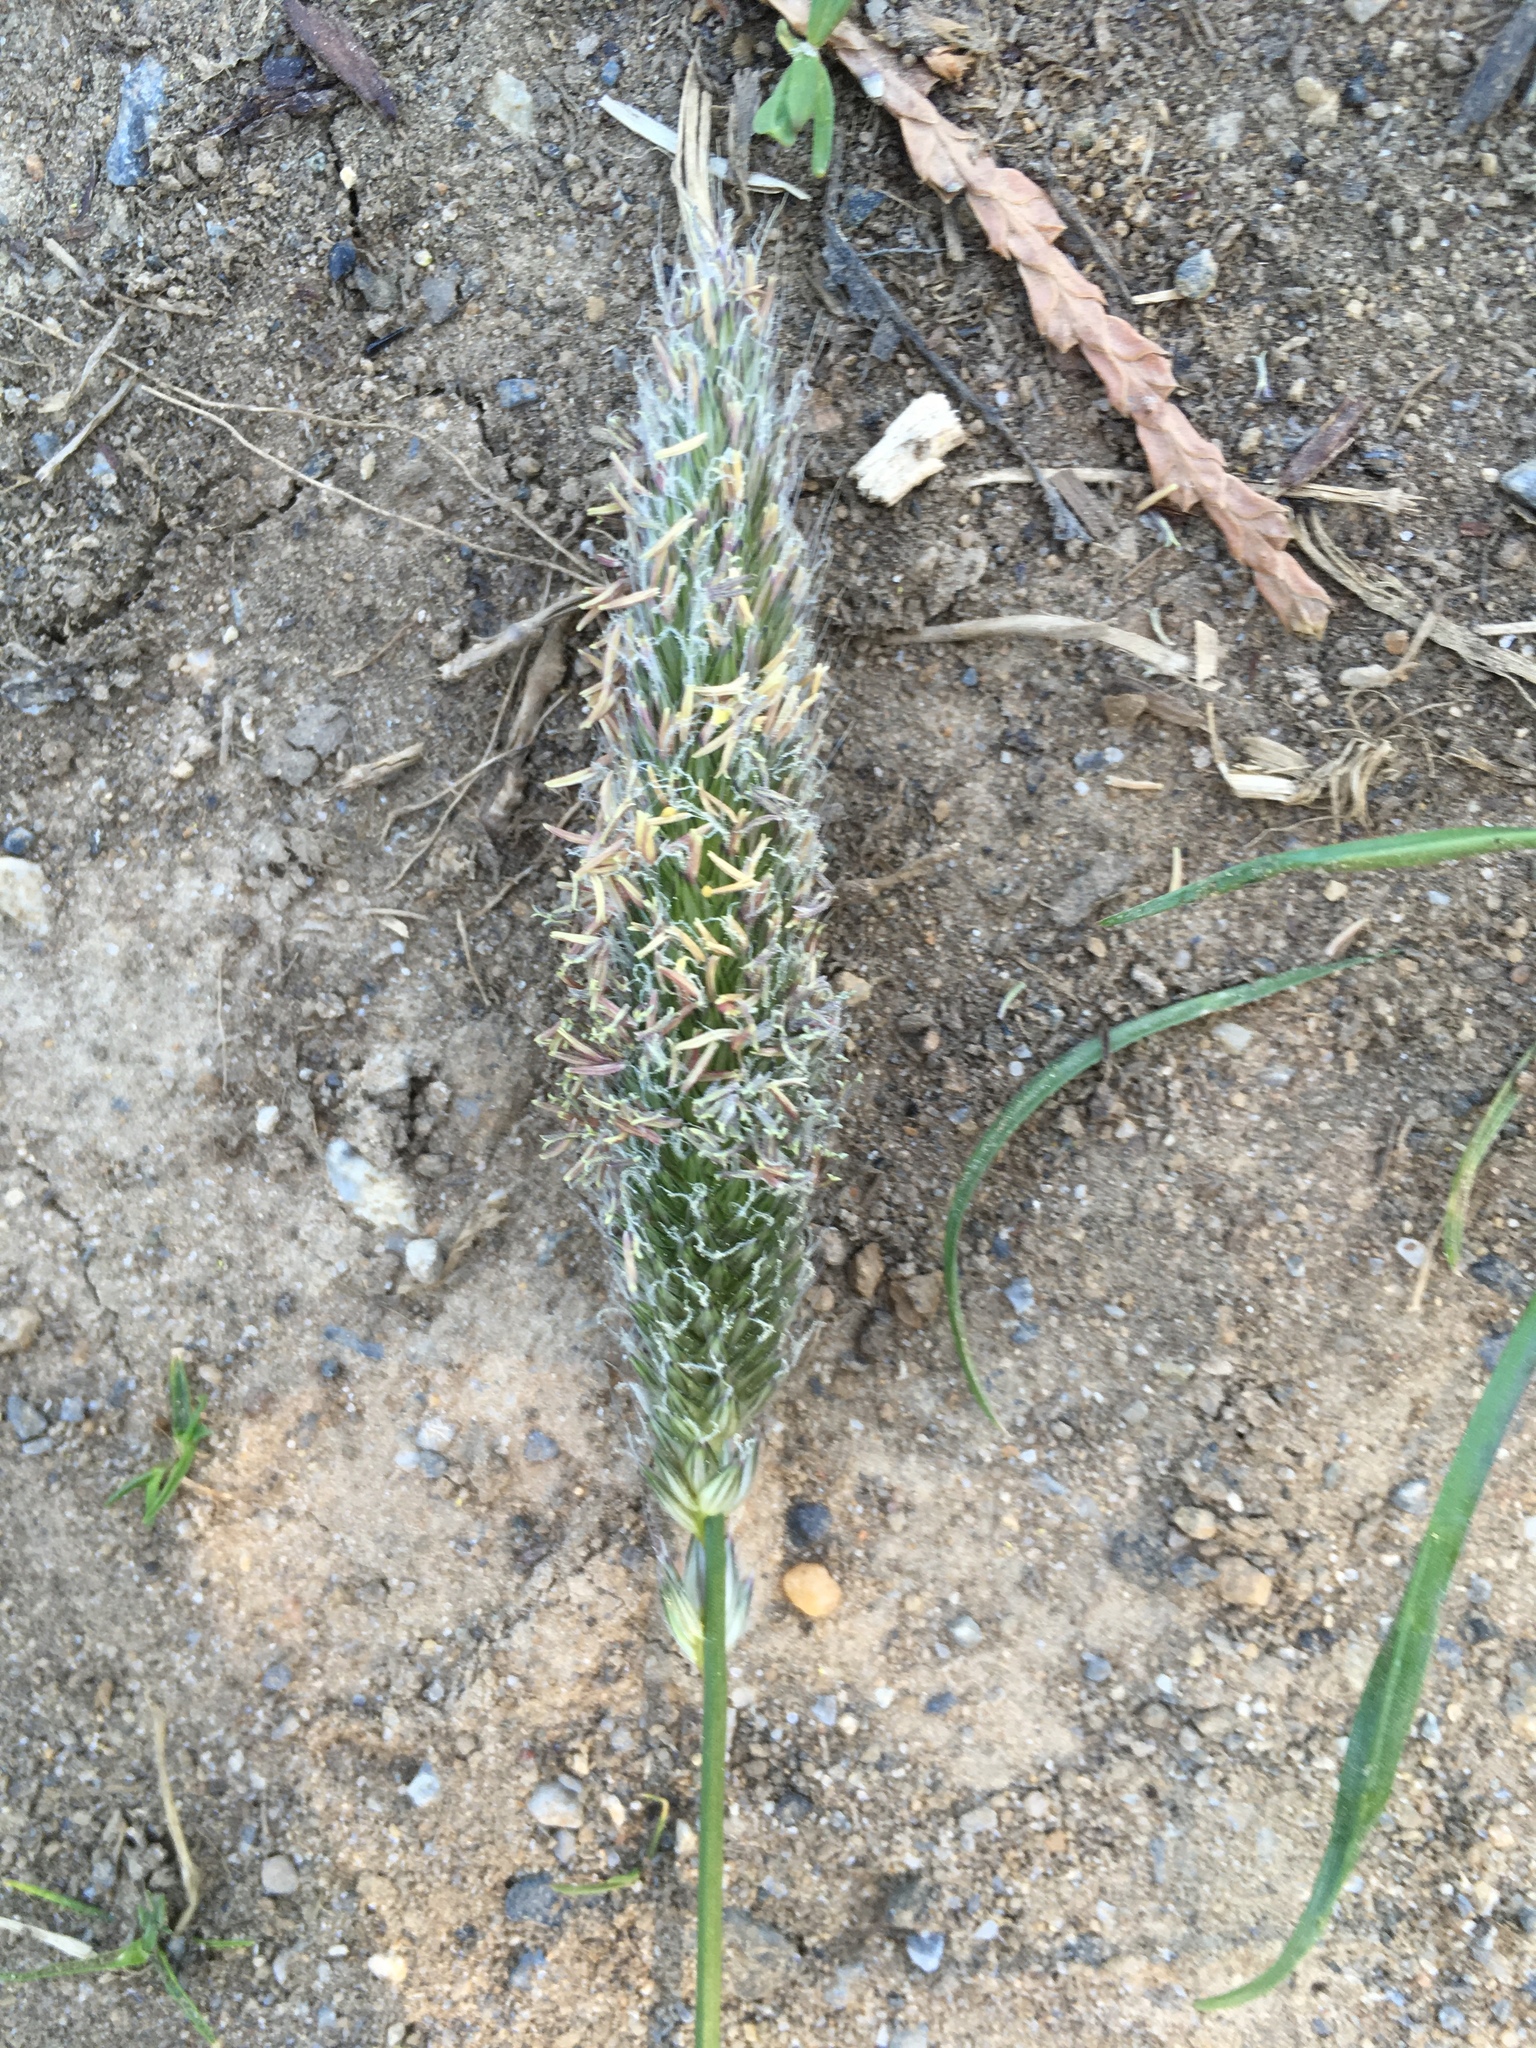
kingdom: Plantae
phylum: Tracheophyta
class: Liliopsida
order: Poales
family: Poaceae
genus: Alopecurus
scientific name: Alopecurus pratensis
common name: Meadow foxtail
